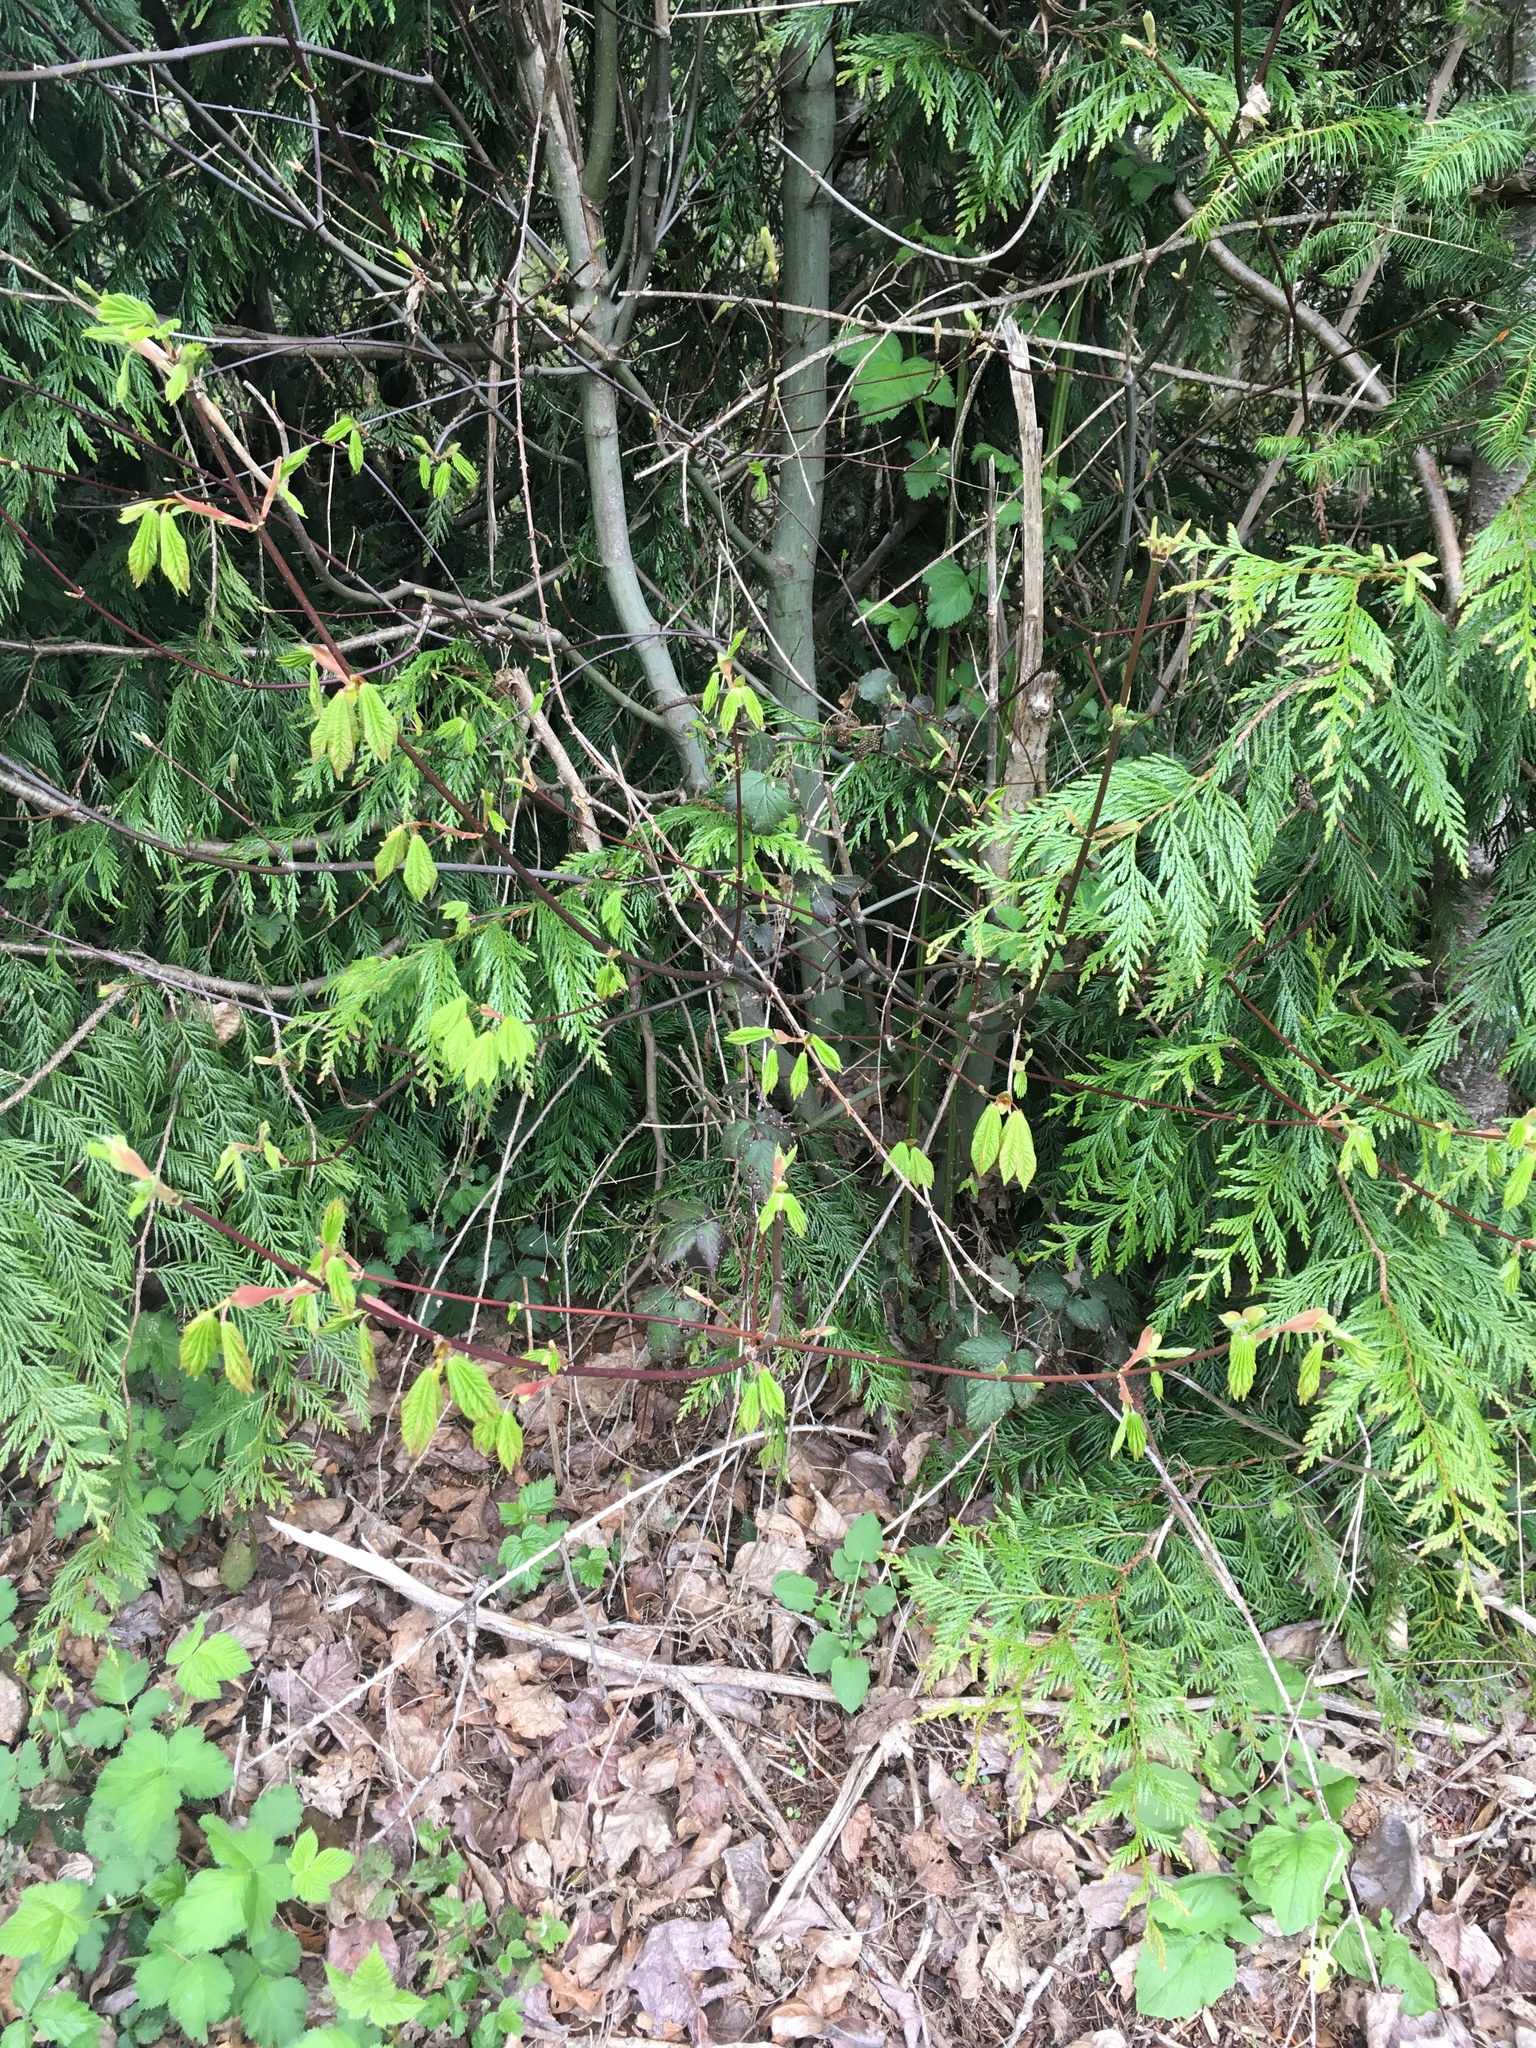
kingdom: Plantae
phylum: Tracheophyta
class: Magnoliopsida
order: Sapindales
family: Sapindaceae
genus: Acer
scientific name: Acer circinatum
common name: Vine maple
